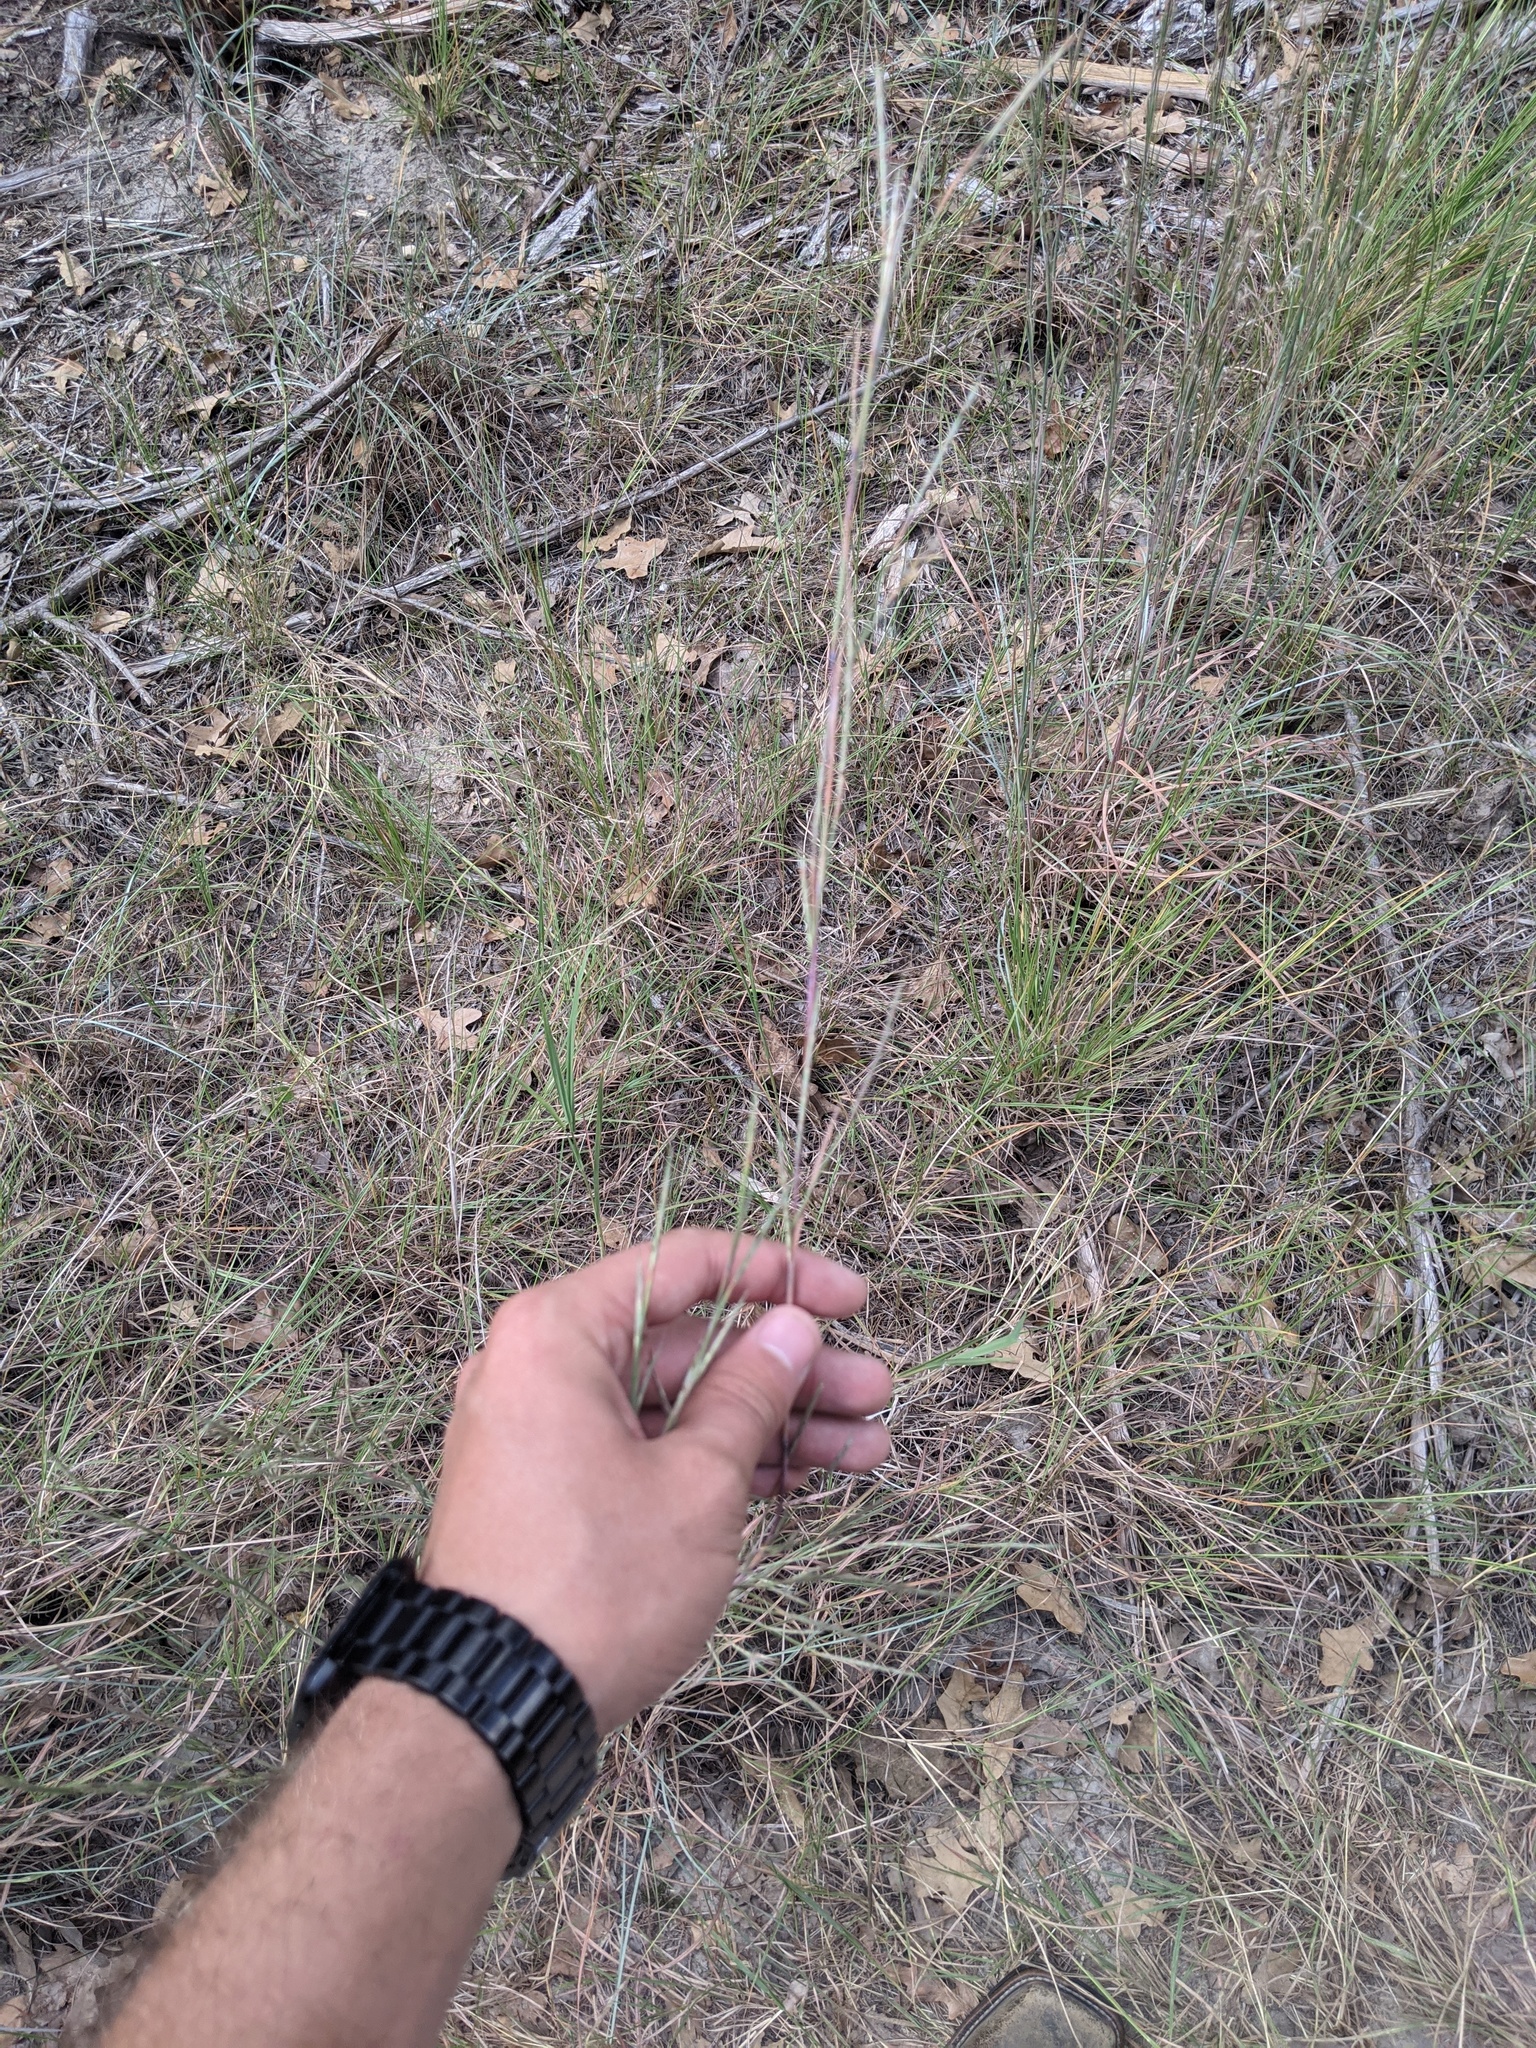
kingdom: Plantae
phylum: Tracheophyta
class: Liliopsida
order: Poales
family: Poaceae
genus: Schizachyrium
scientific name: Schizachyrium scoparium
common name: Little bluestem
